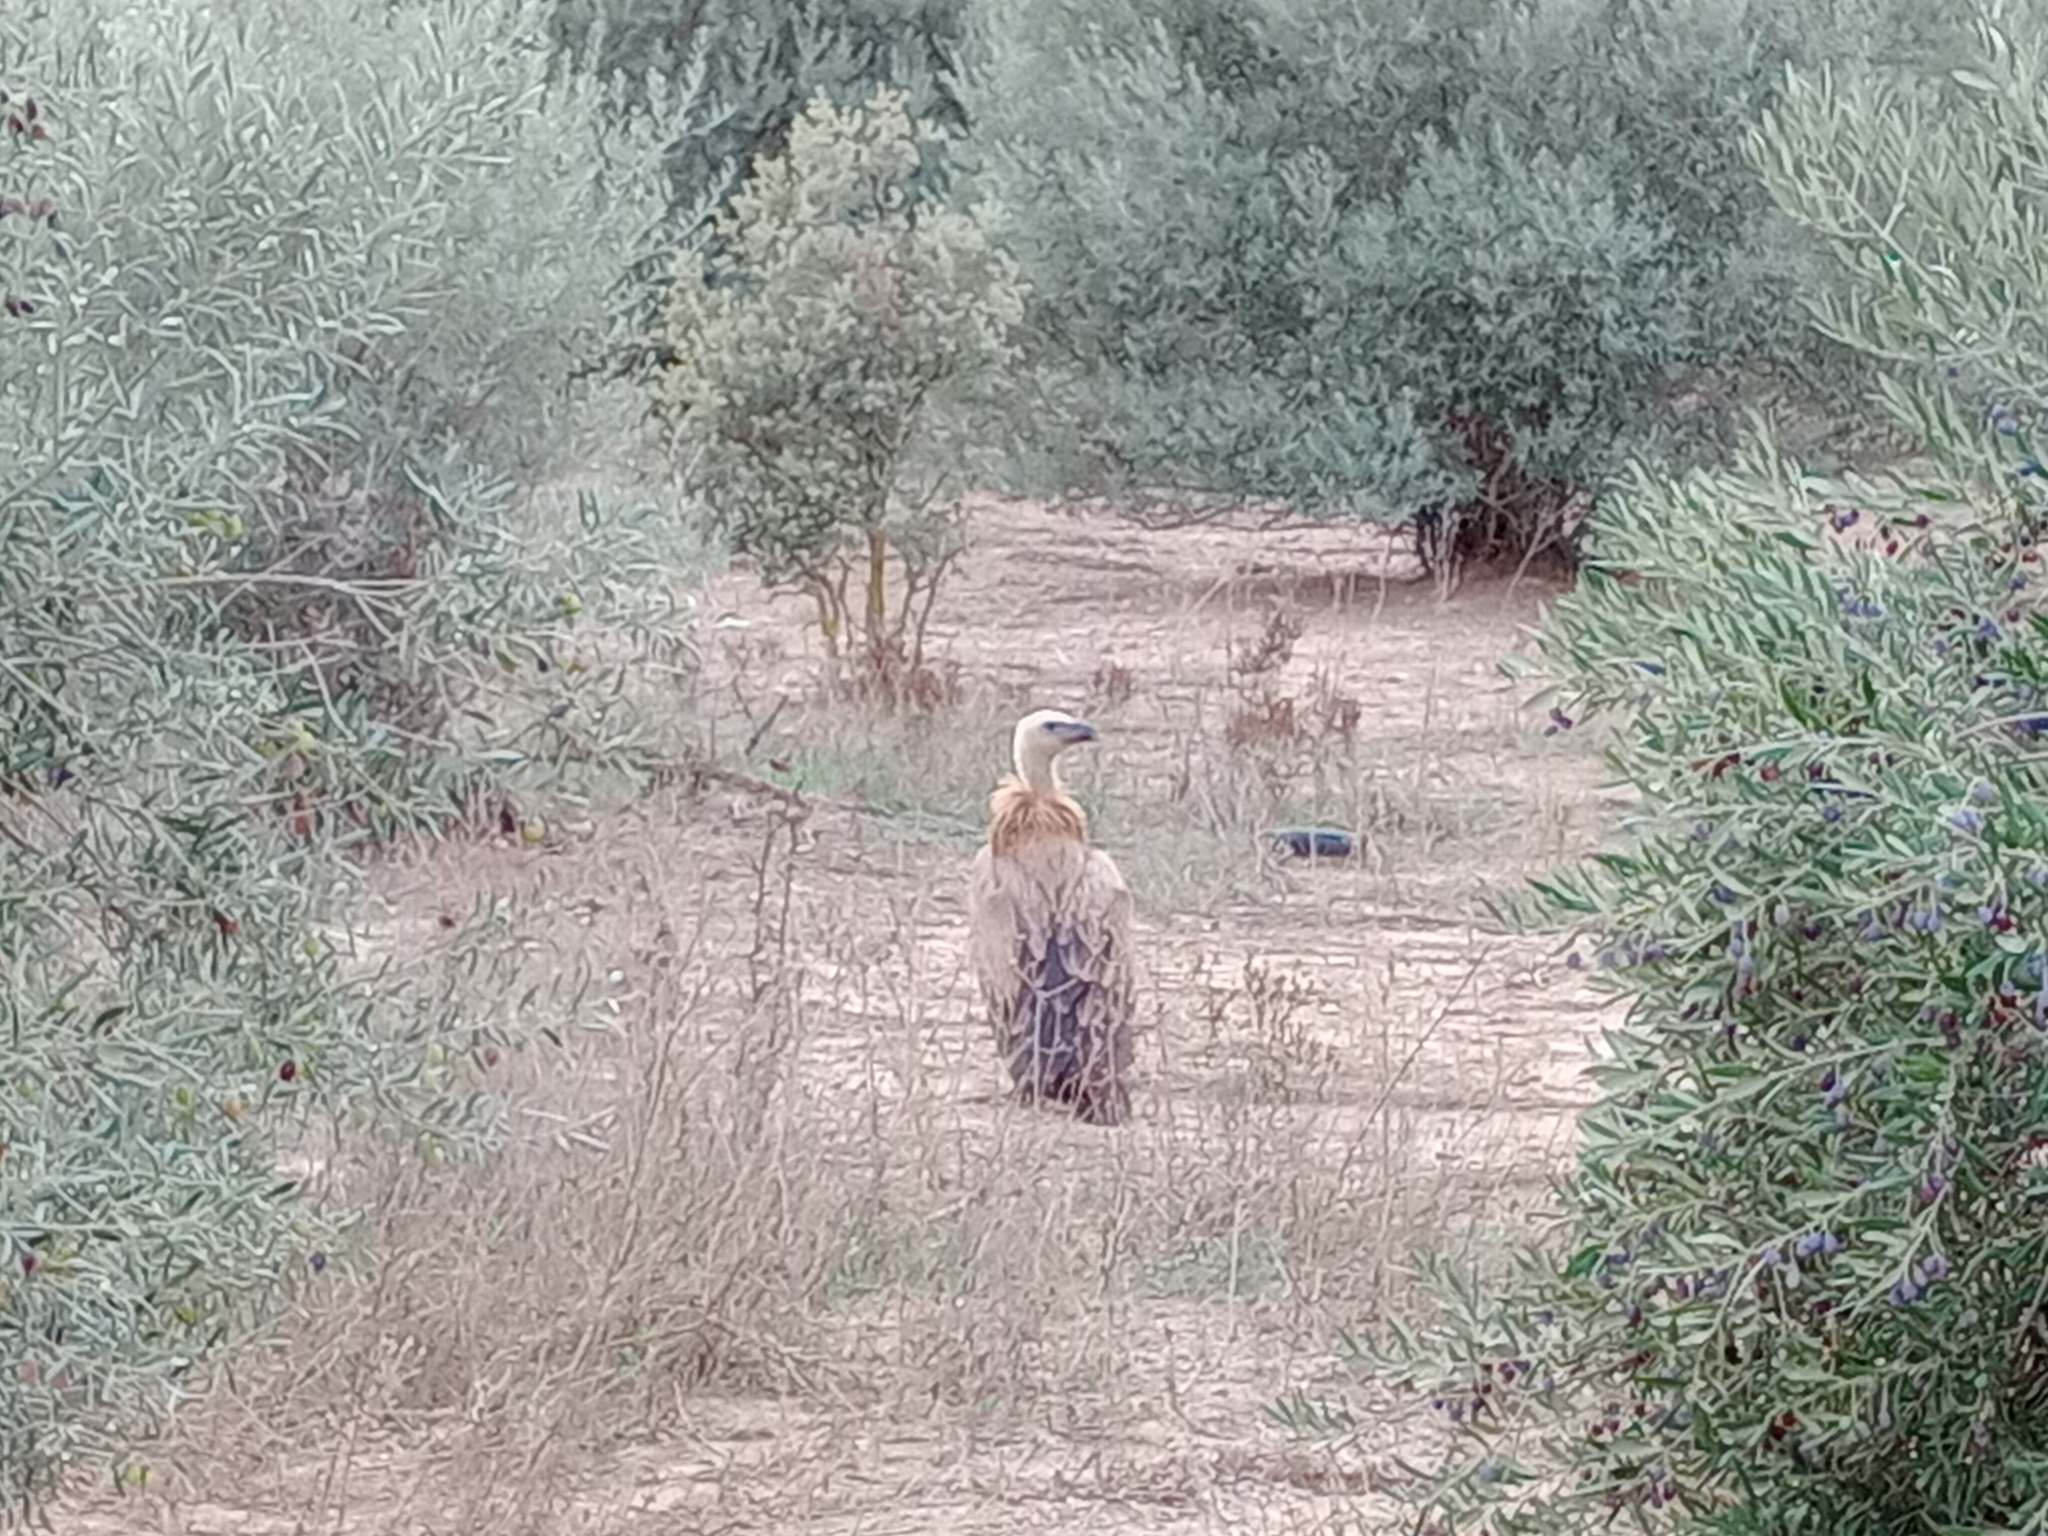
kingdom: Animalia
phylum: Chordata
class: Aves
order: Accipitriformes
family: Accipitridae
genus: Gyps
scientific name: Gyps fulvus
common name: Griffon vulture
